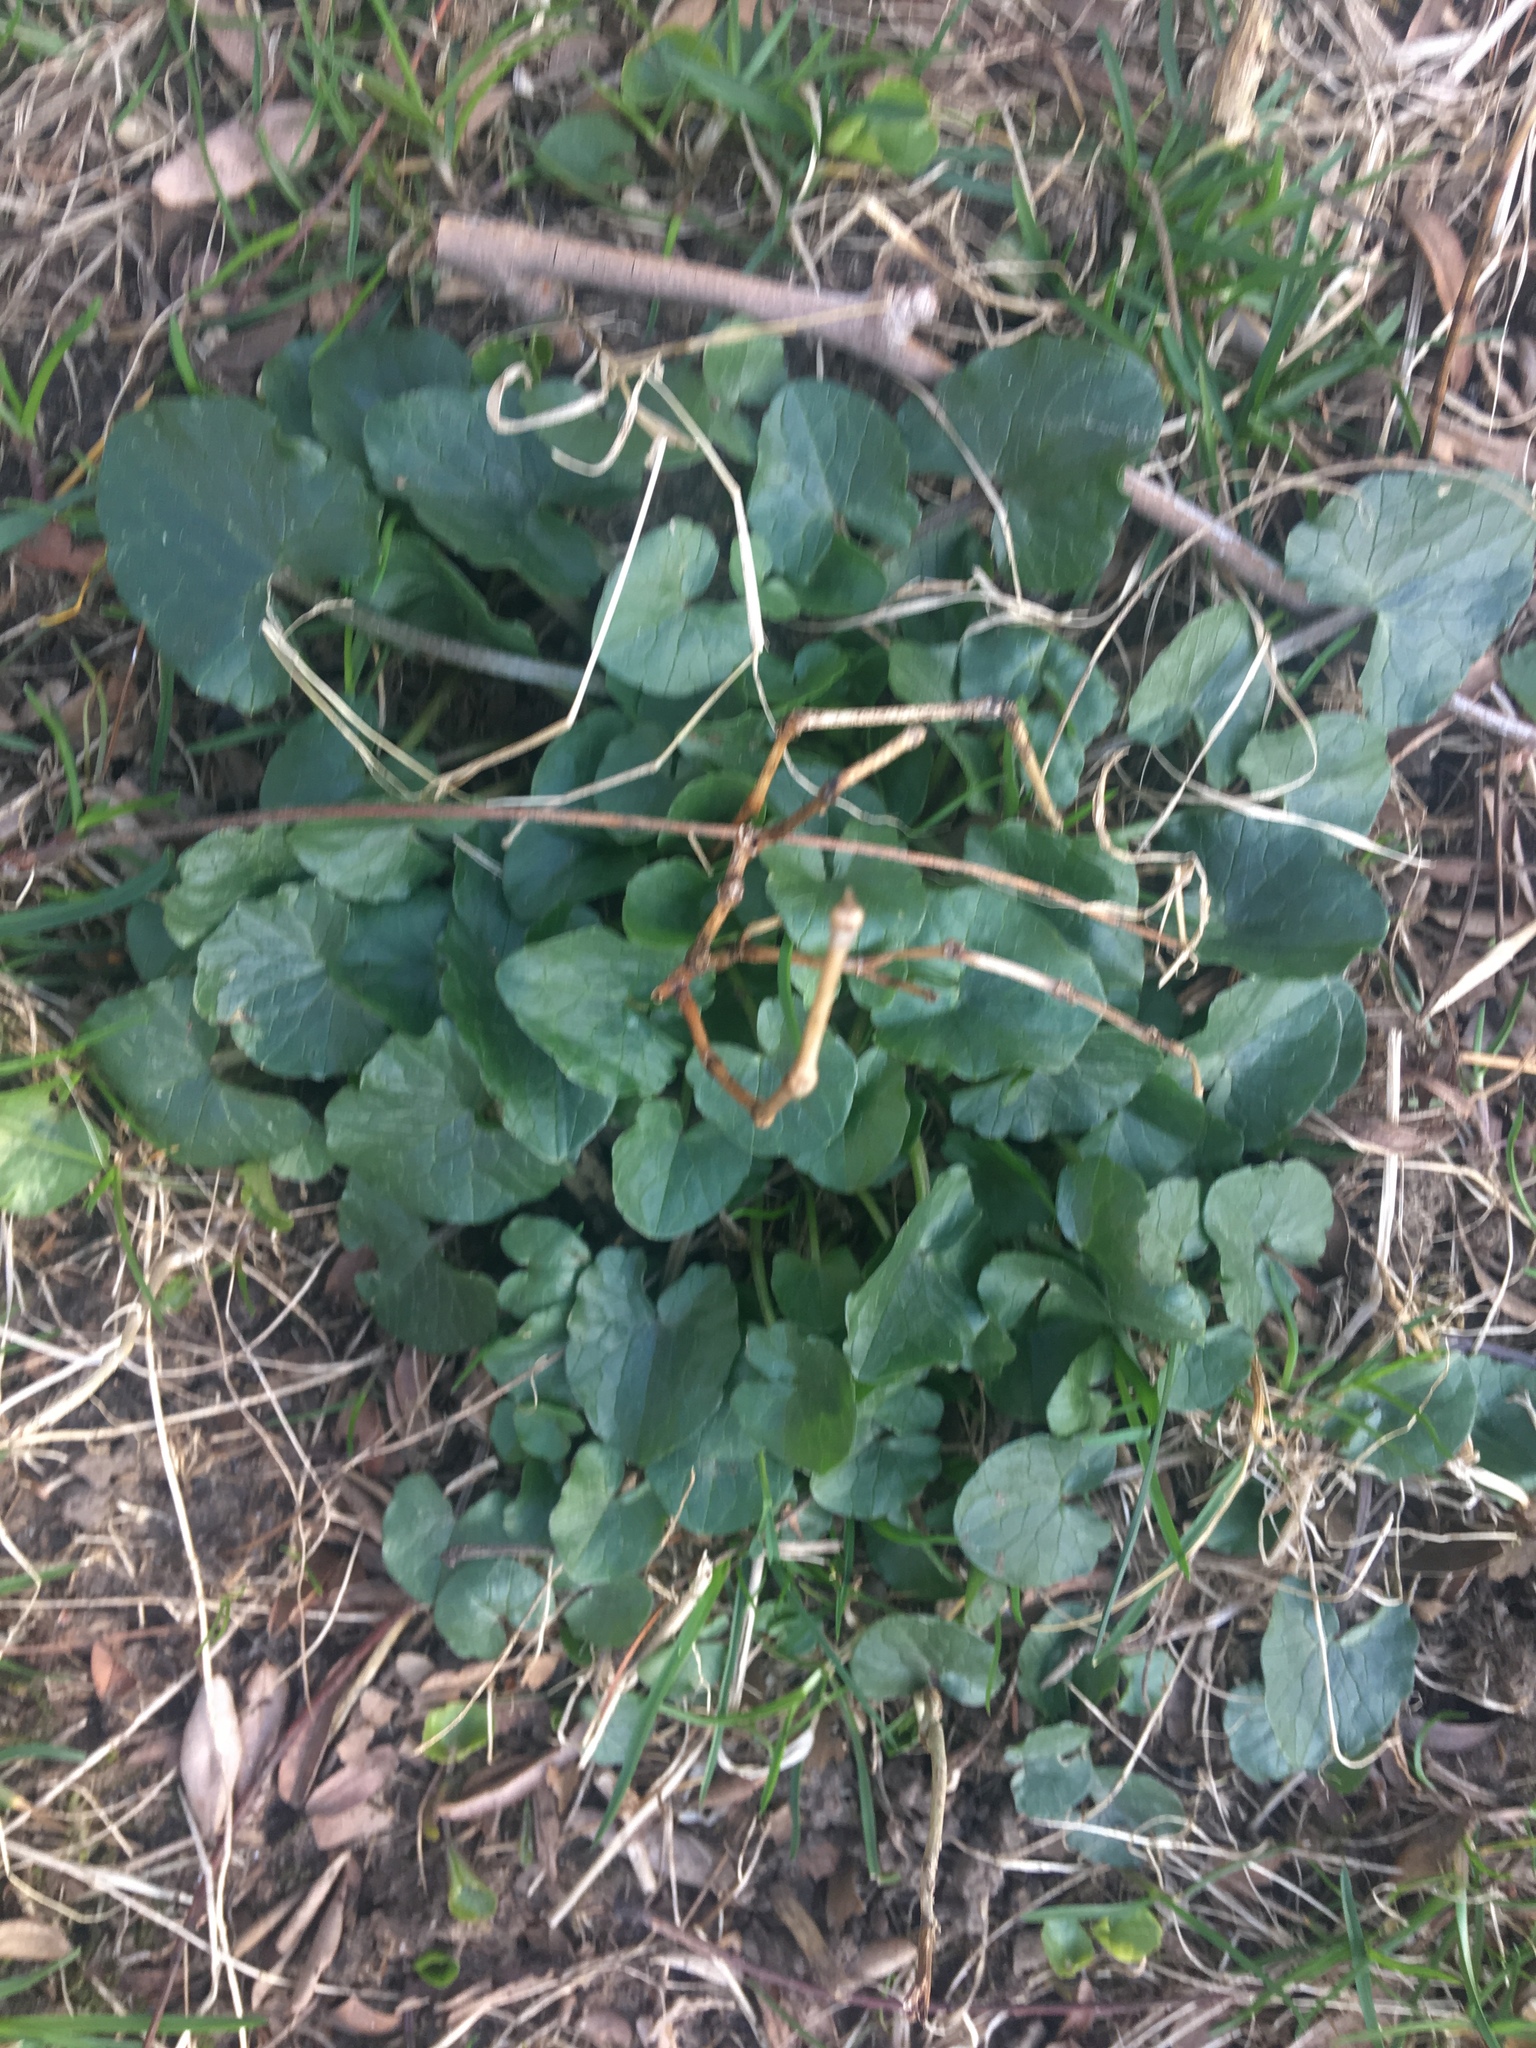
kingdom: Plantae
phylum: Tracheophyta
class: Magnoliopsida
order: Ranunculales
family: Ranunculaceae
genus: Ficaria
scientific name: Ficaria verna
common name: Lesser celandine
